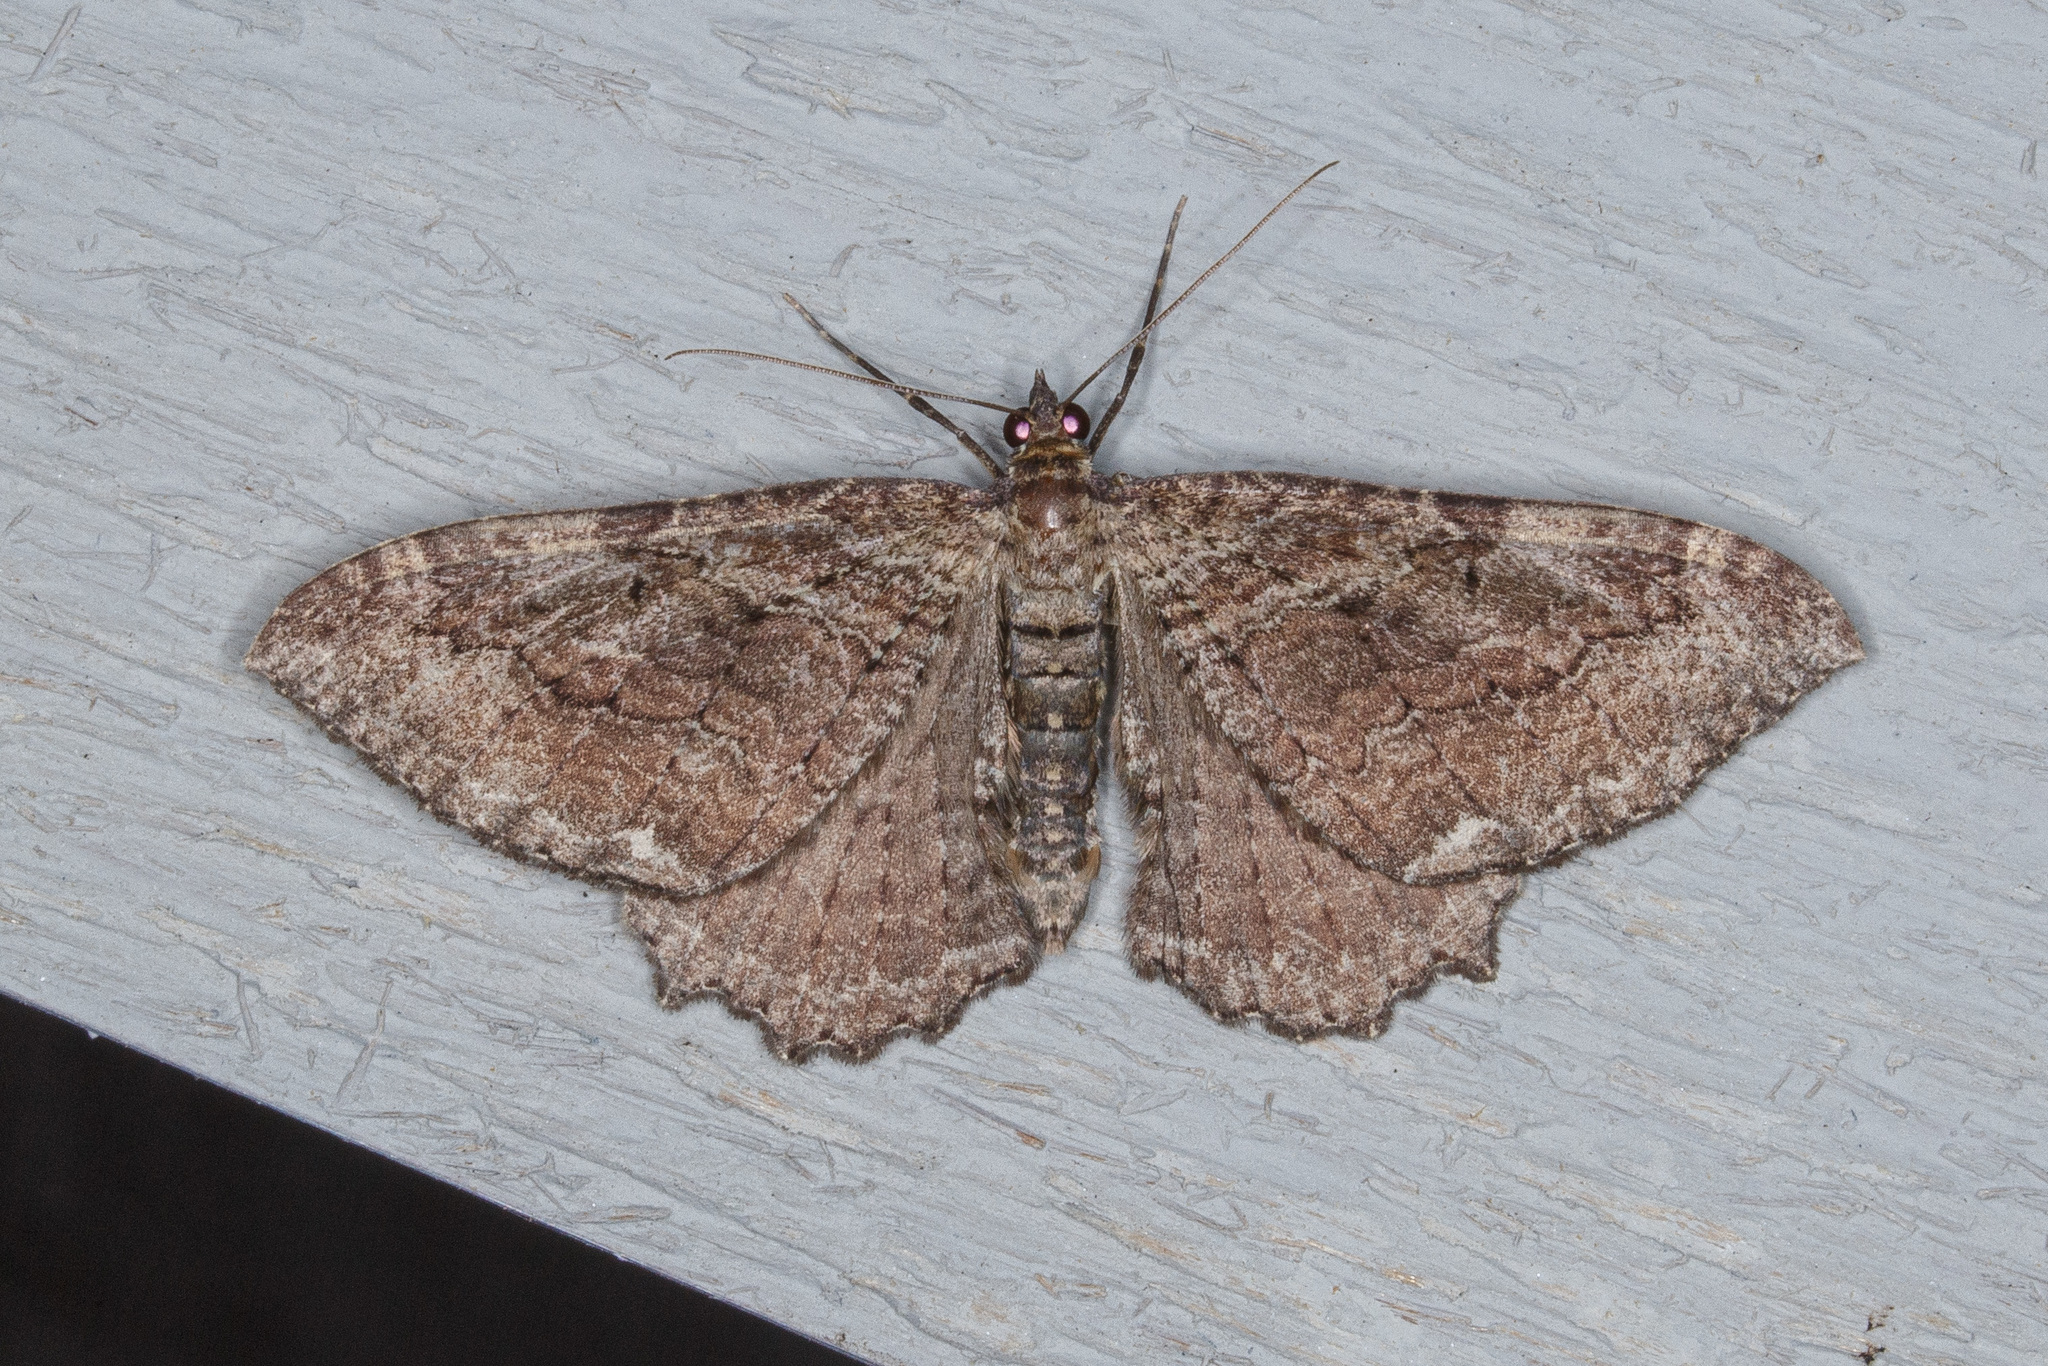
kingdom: Animalia
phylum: Arthropoda
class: Insecta
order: Lepidoptera
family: Geometridae
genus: Rheumaptera
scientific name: Rheumaptera
